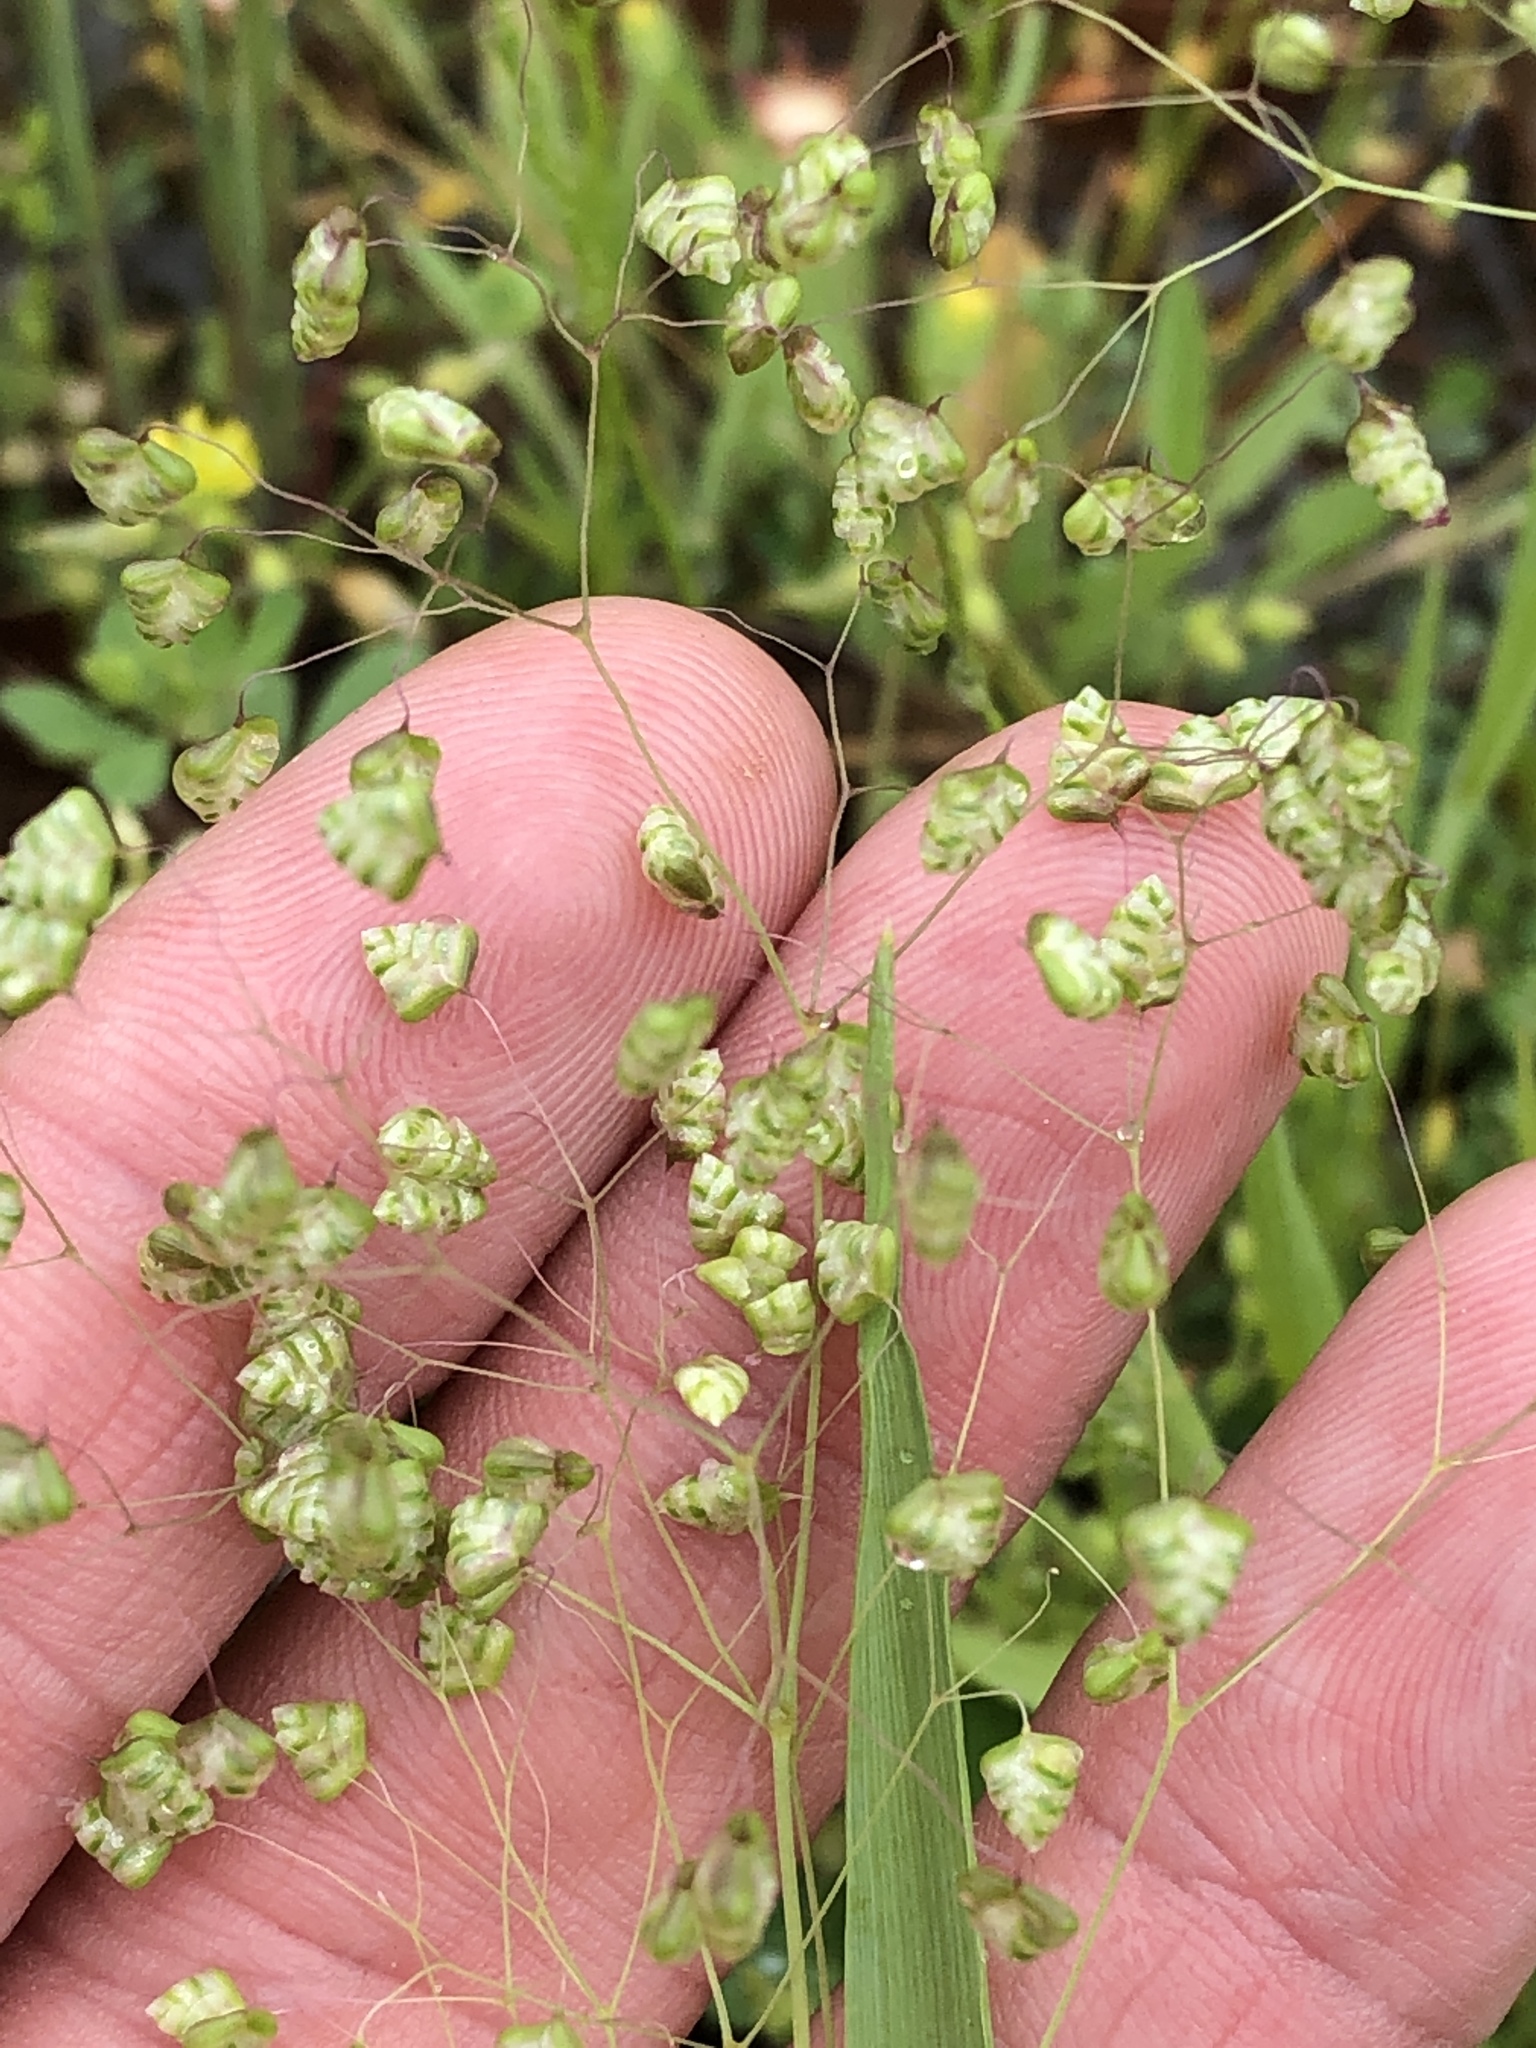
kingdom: Plantae
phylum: Tracheophyta
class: Liliopsida
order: Poales
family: Poaceae
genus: Briza
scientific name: Briza minor
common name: Lesser quaking-grass
